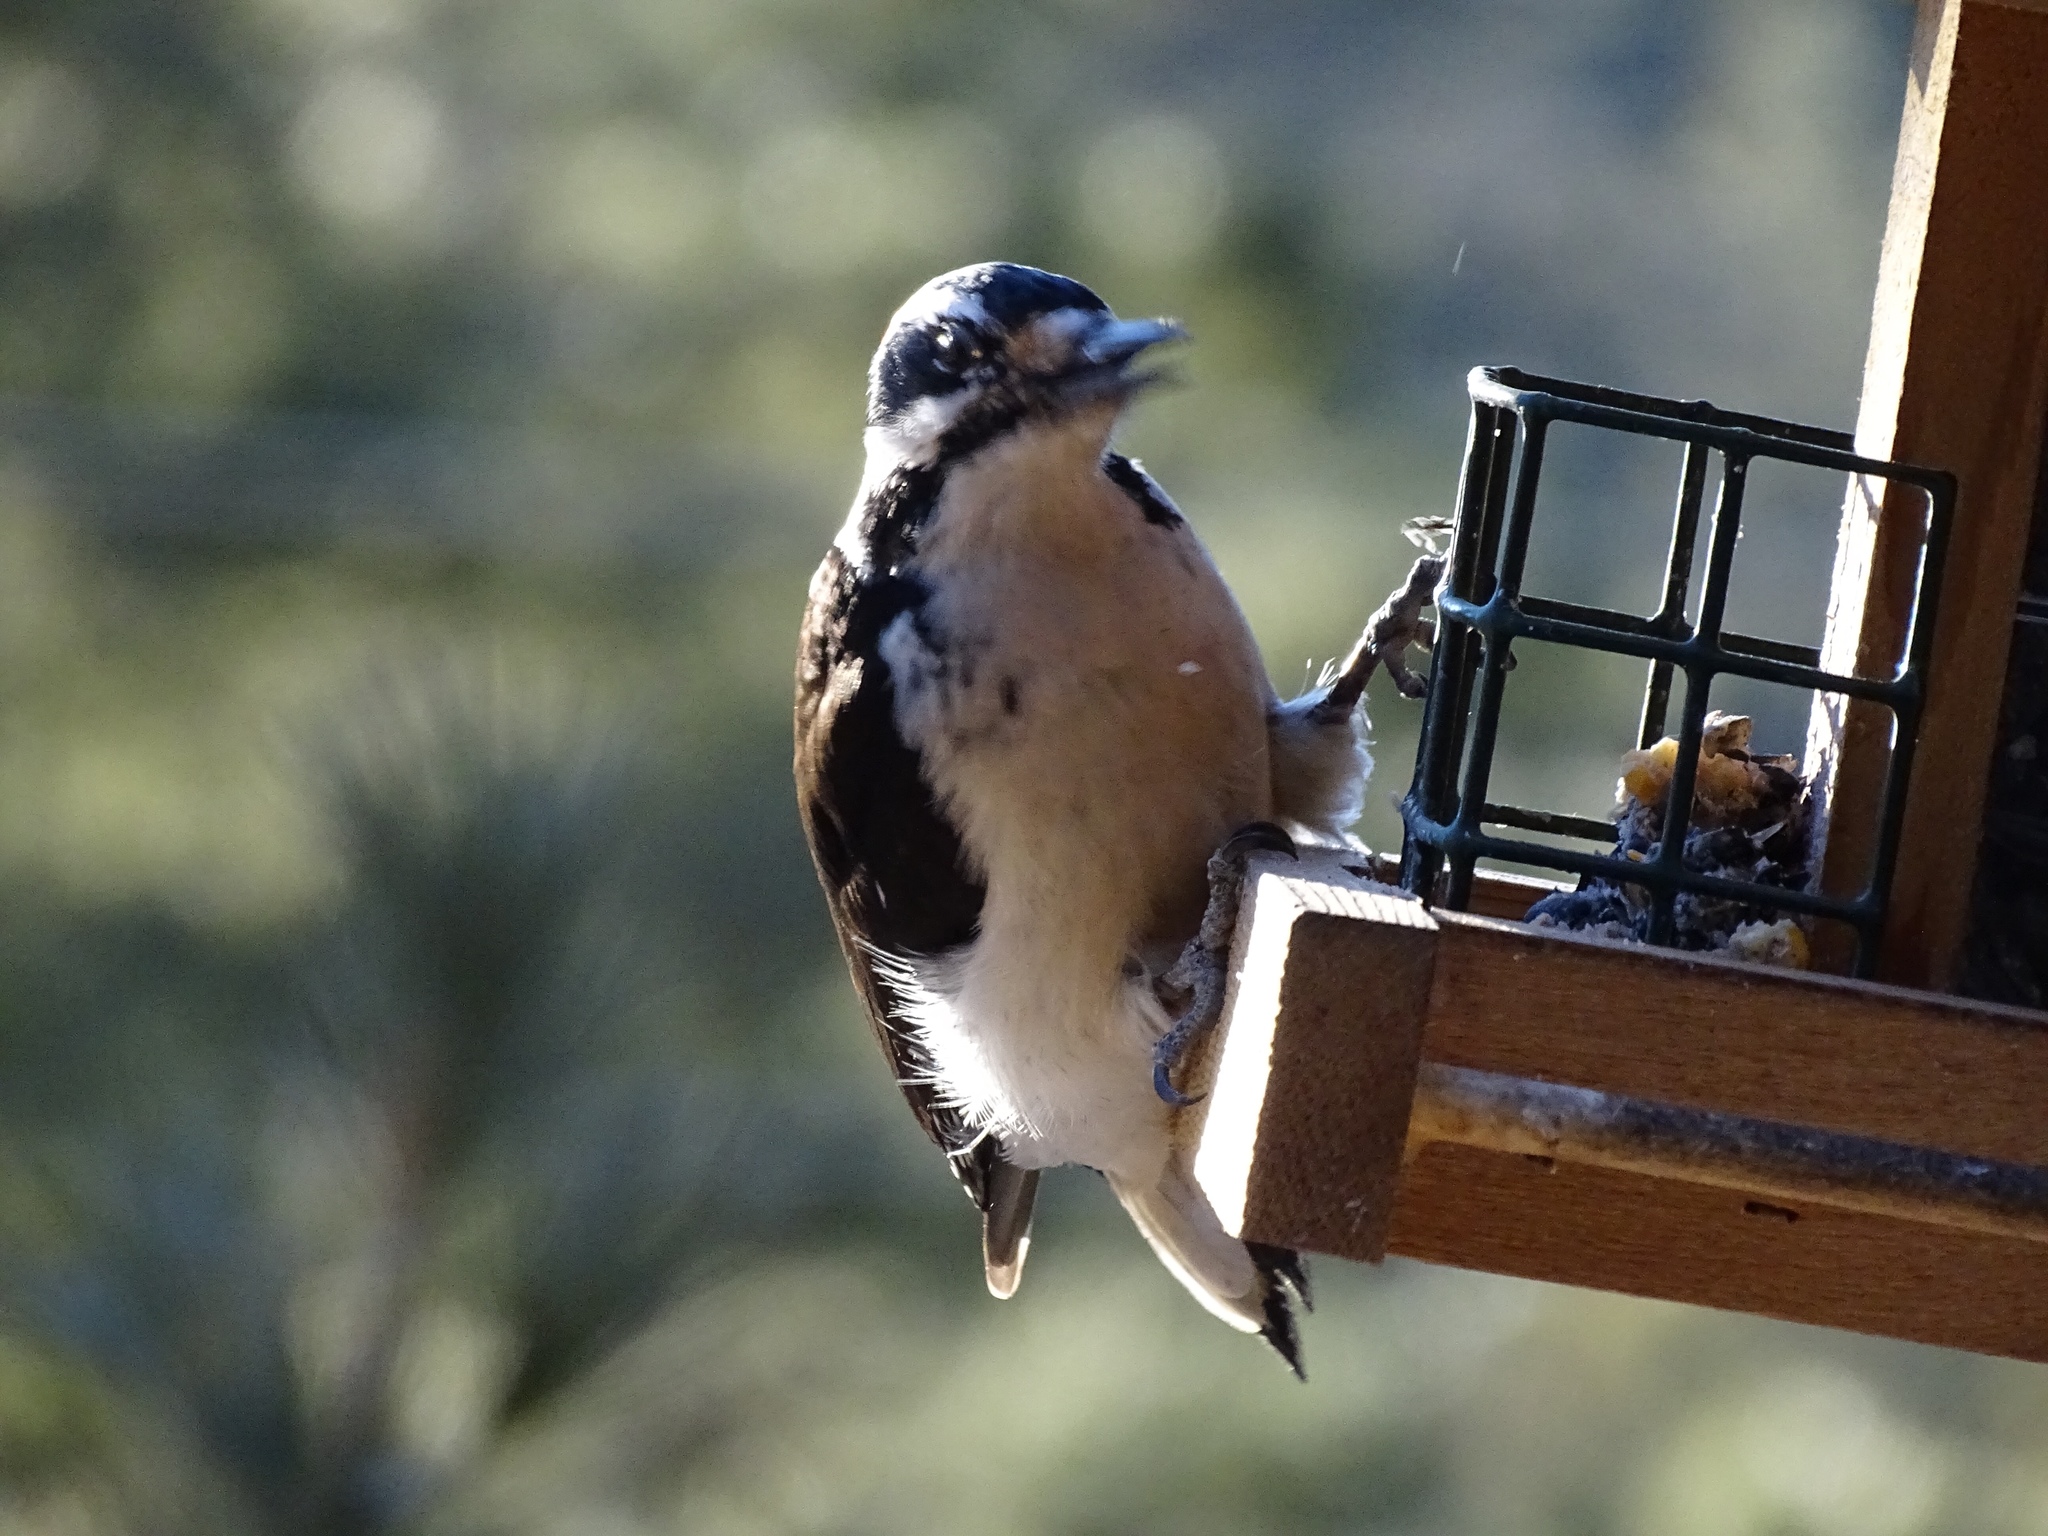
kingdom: Animalia
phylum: Chordata
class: Aves
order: Piciformes
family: Picidae
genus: Leuconotopicus
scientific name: Leuconotopicus villosus
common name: Hairy woodpecker
